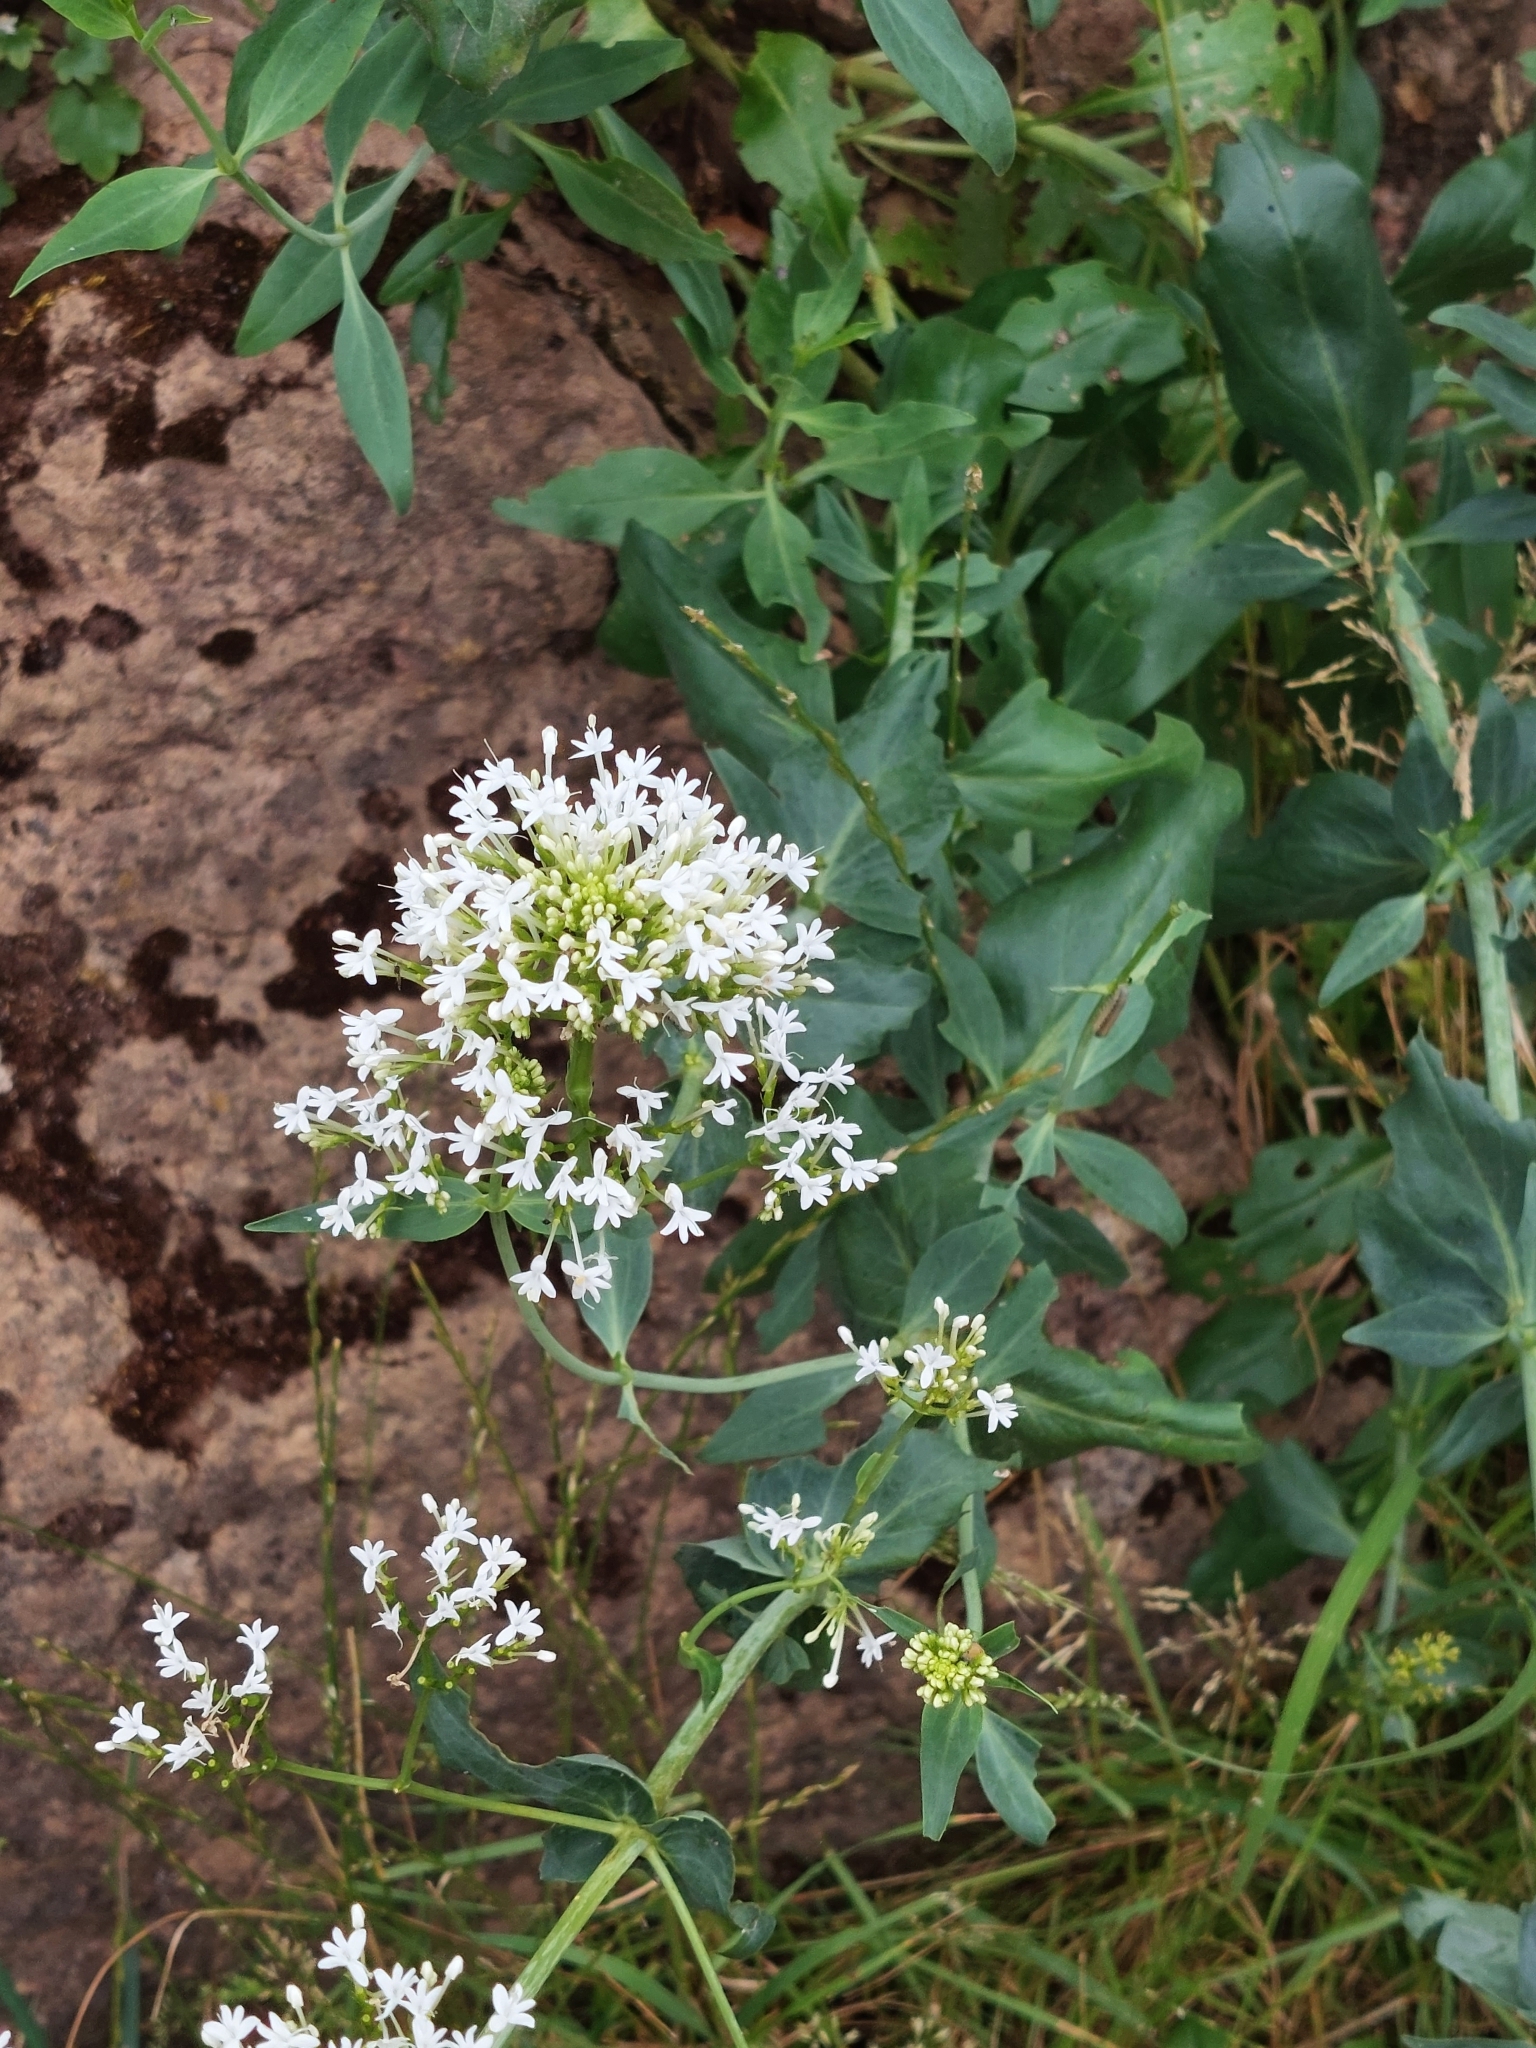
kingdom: Plantae
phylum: Tracheophyta
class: Magnoliopsida
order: Dipsacales
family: Caprifoliaceae
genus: Centranthus
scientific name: Centranthus ruber
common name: Red valerian
